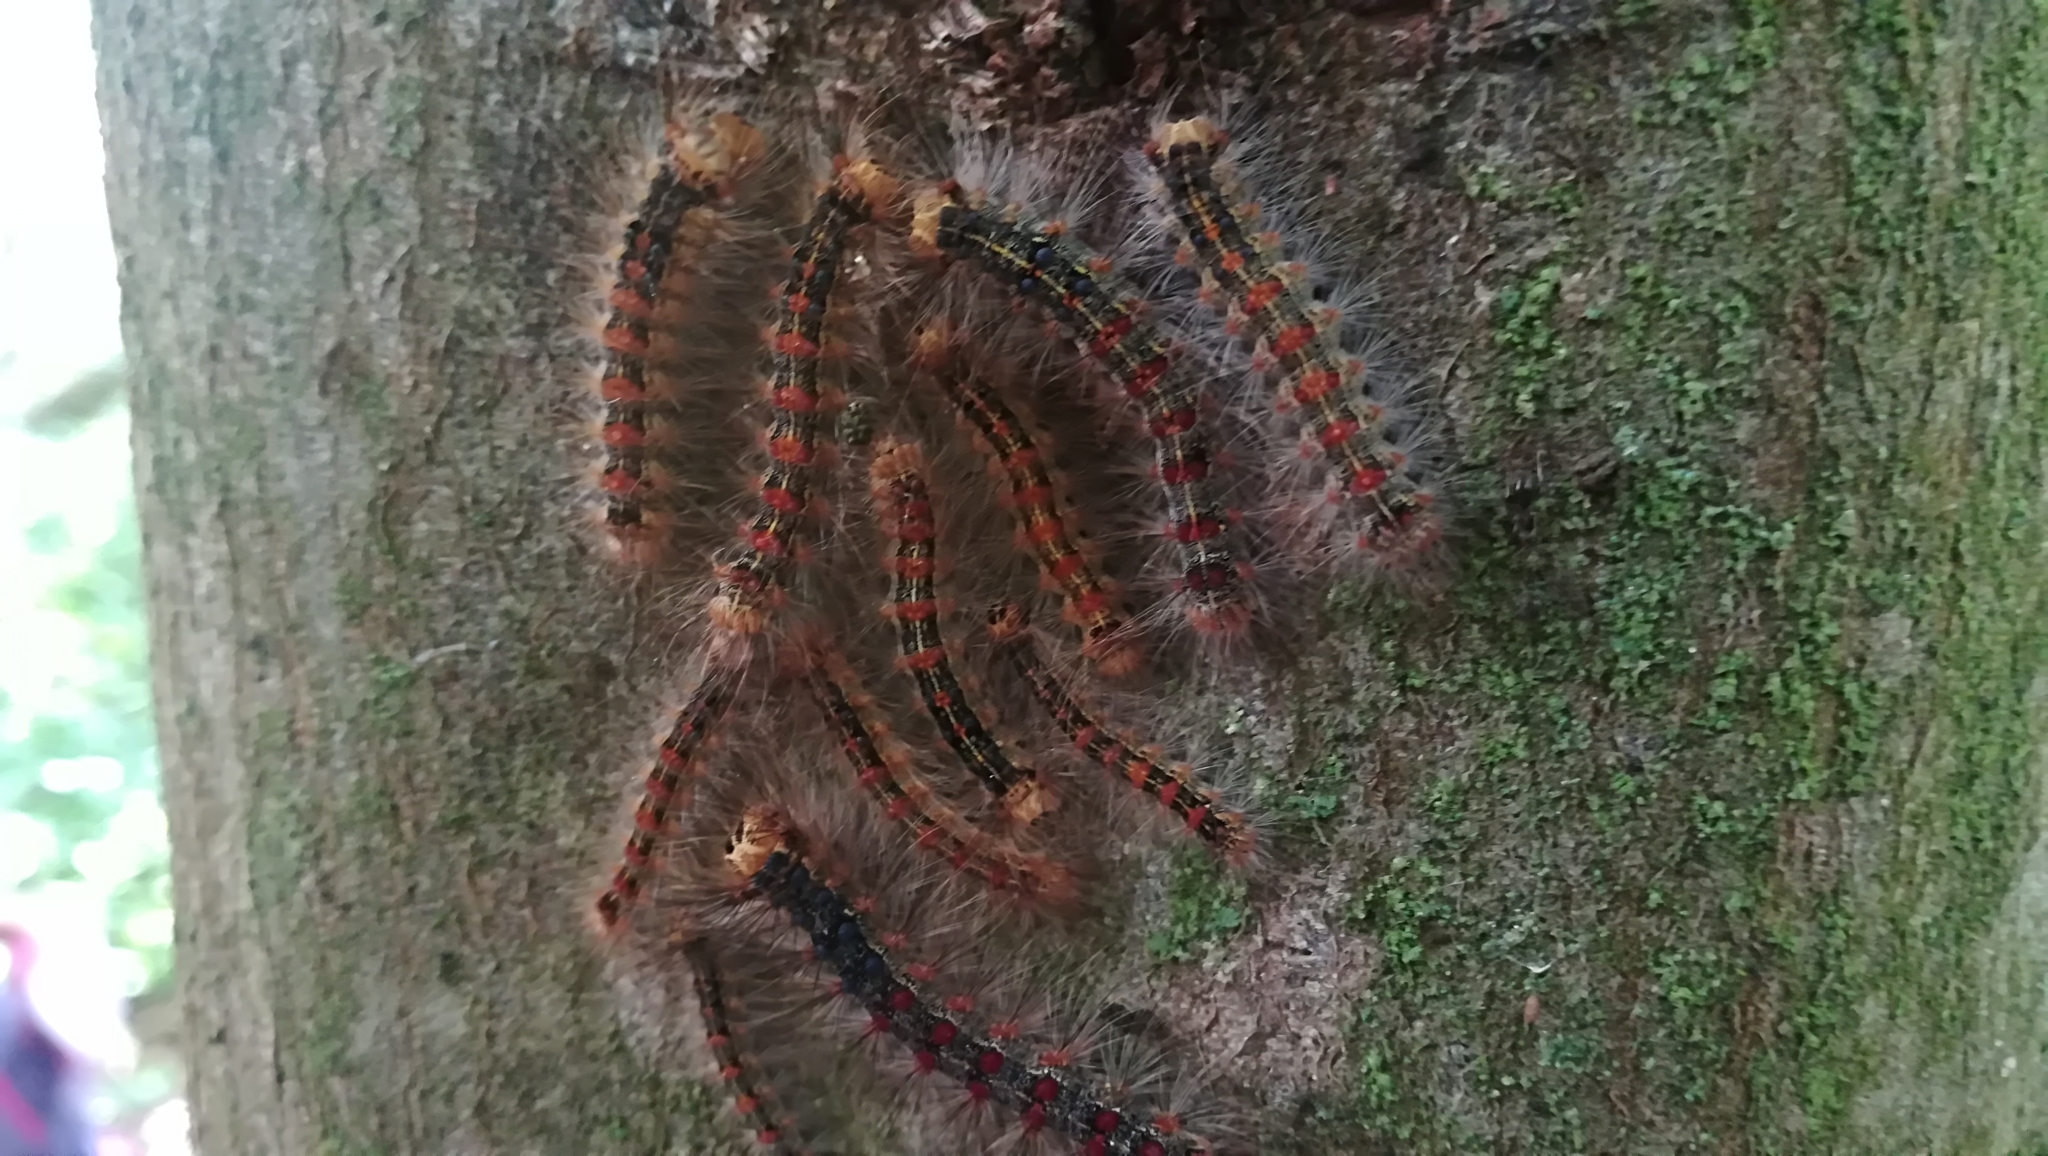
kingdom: Animalia
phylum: Arthropoda
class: Insecta
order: Lepidoptera
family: Erebidae
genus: Lymantria
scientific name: Lymantria dispar
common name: Gypsy moth
